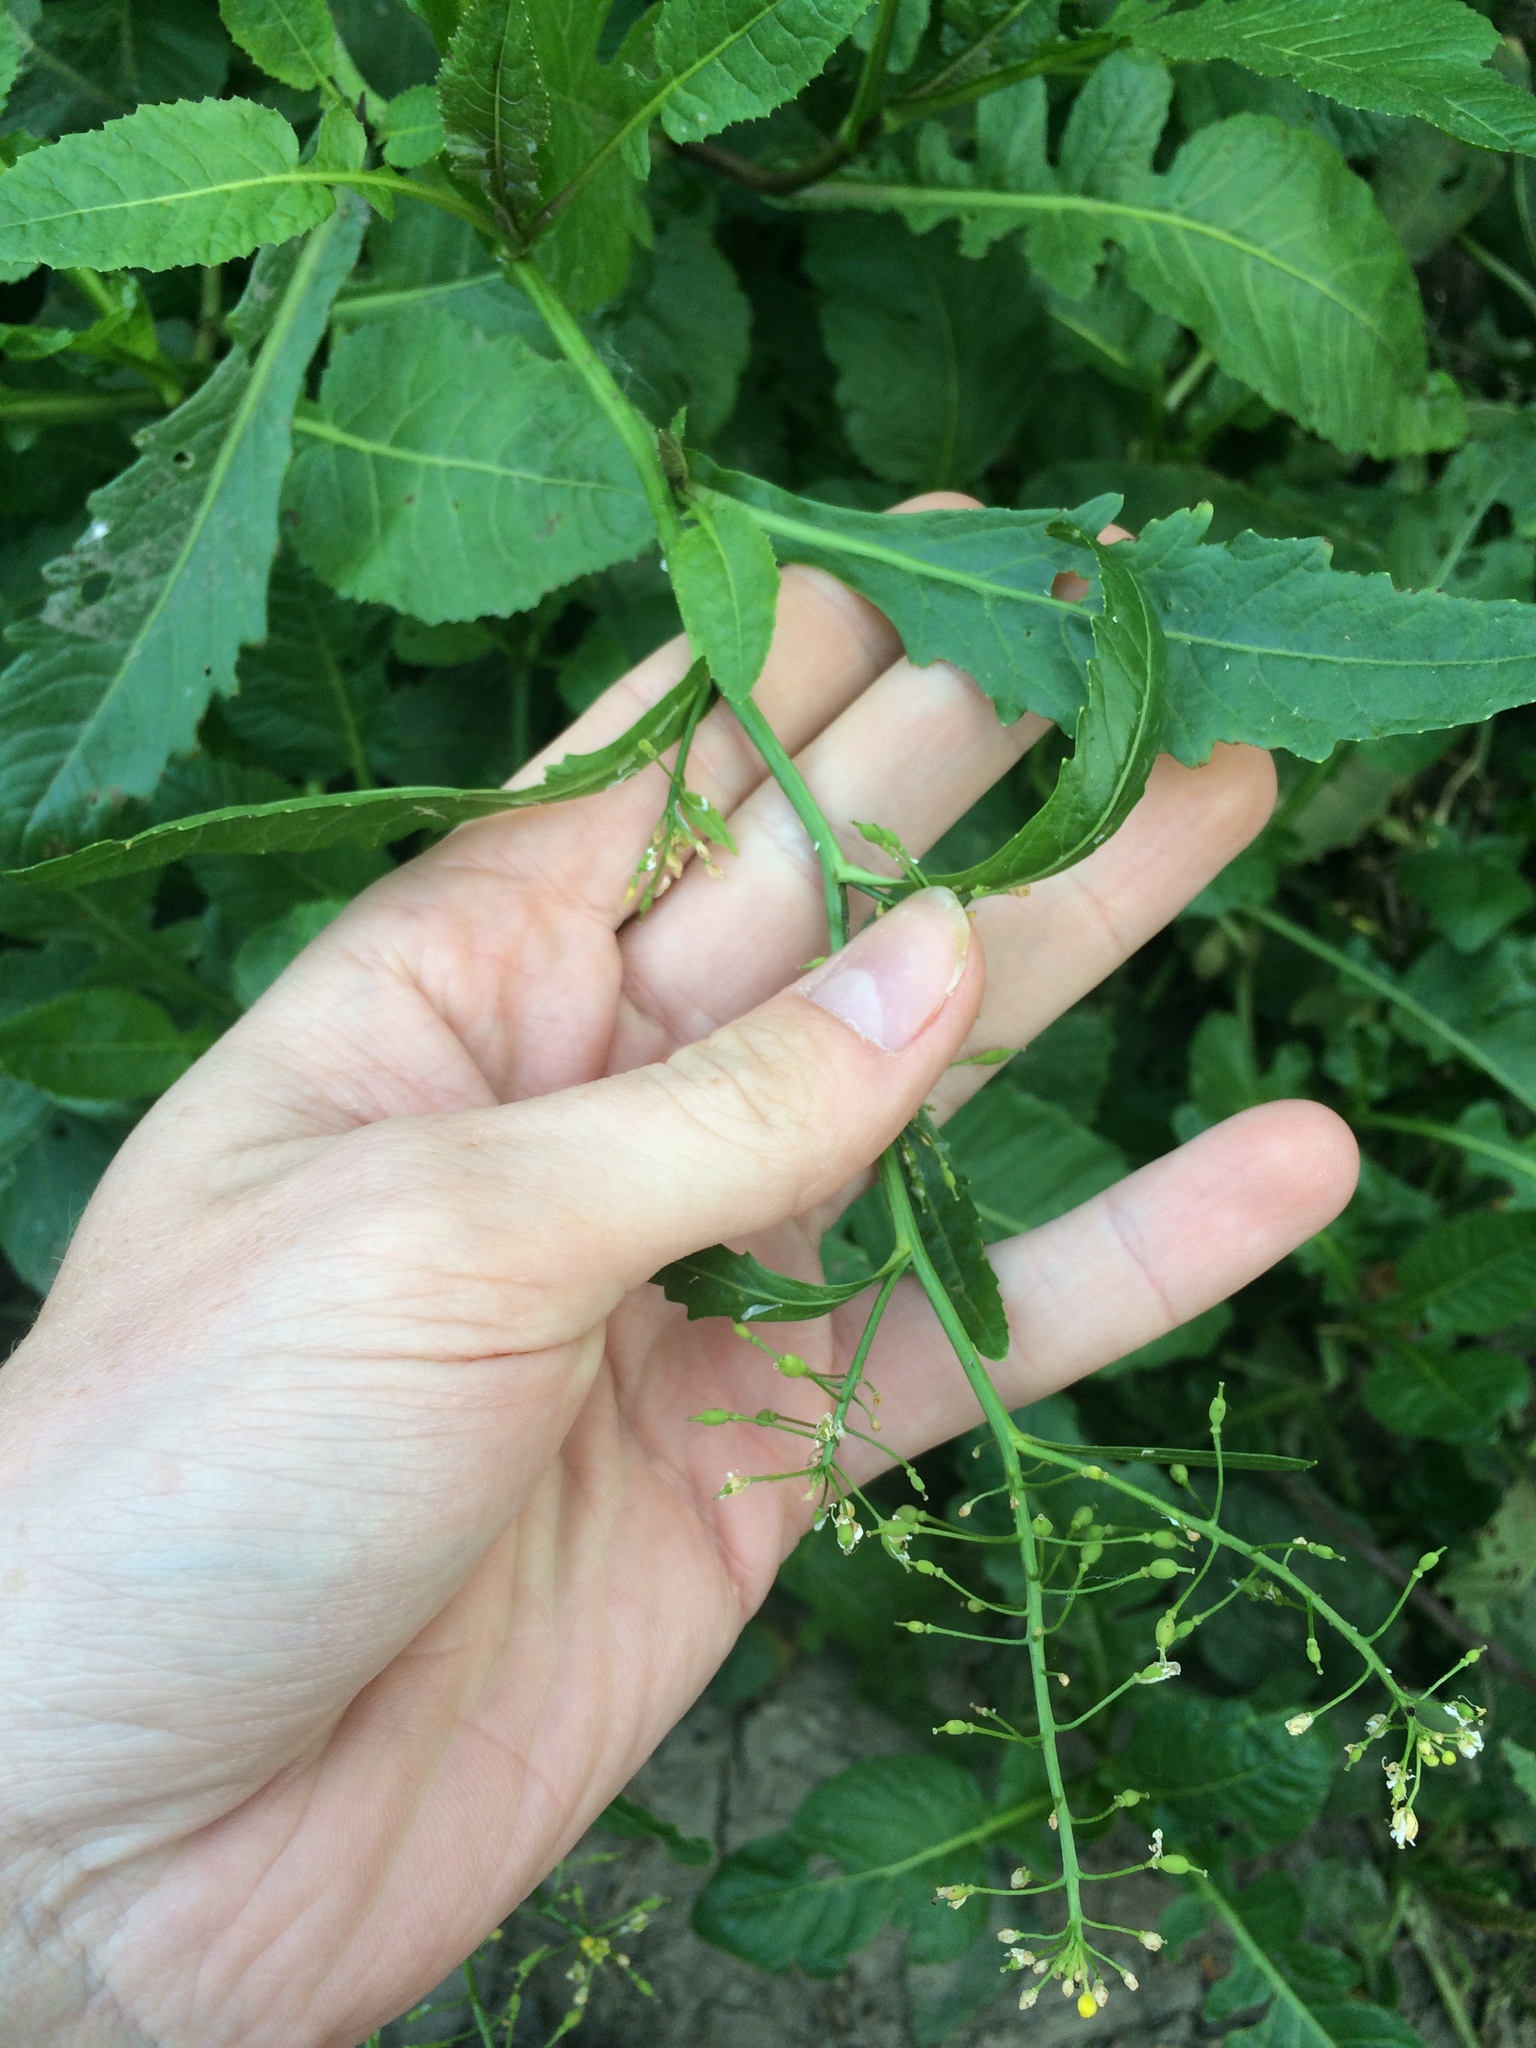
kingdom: Plantae
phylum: Tracheophyta
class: Magnoliopsida
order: Brassicales
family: Brassicaceae
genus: Rorippa
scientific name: Rorippa amphibia
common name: Great yellow-cress
